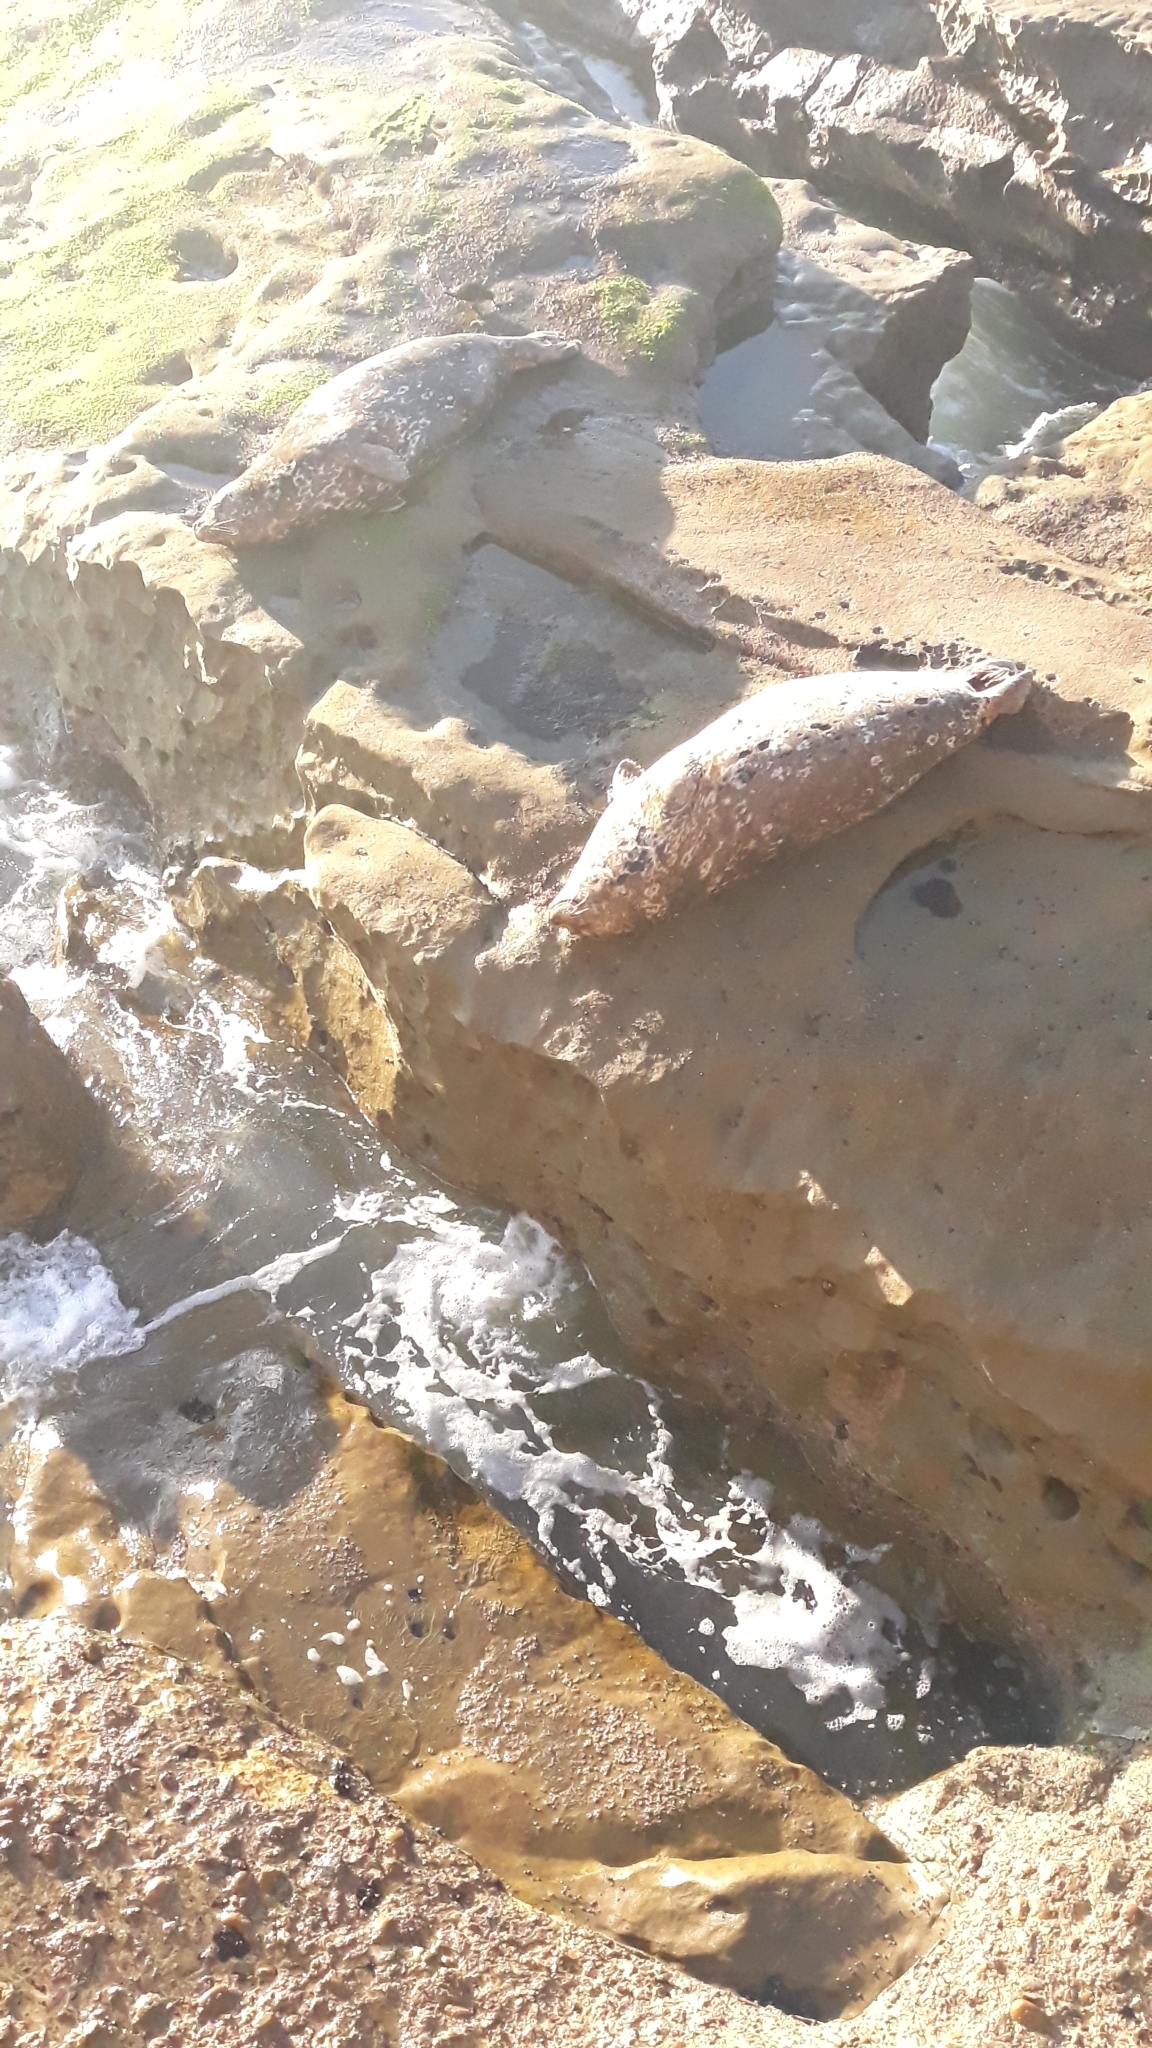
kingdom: Animalia
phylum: Chordata
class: Mammalia
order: Carnivora
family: Phocidae
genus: Phoca
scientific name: Phoca vitulina
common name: Harbor seal
